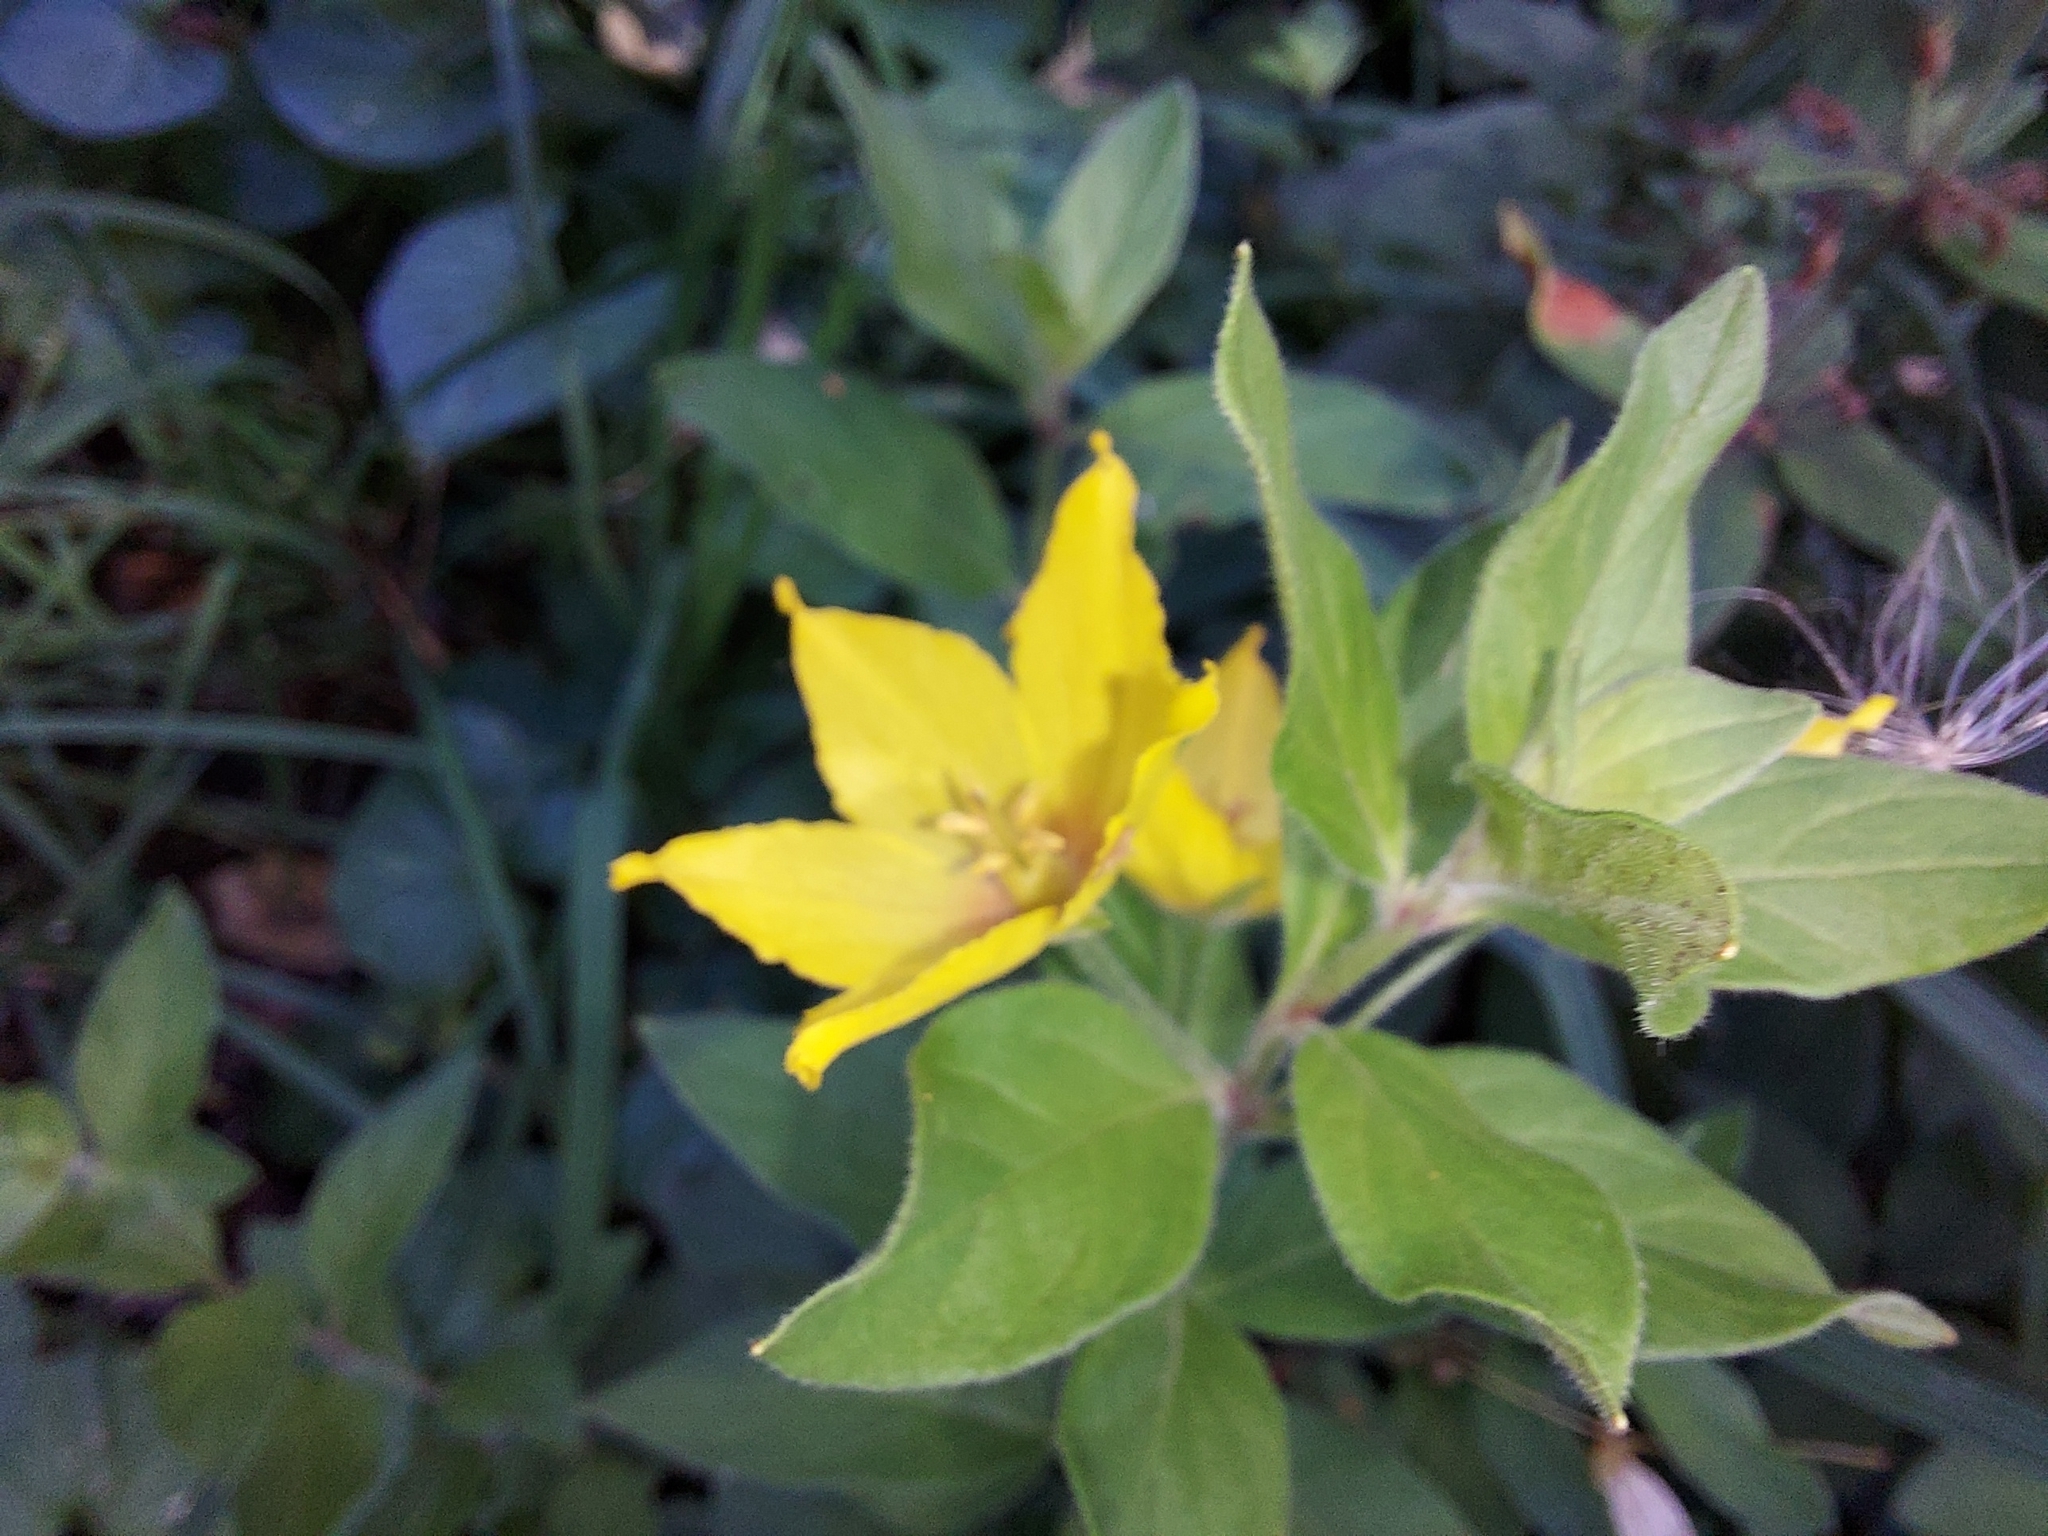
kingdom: Plantae
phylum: Tracheophyta
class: Magnoliopsida
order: Ericales
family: Primulaceae
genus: Lysimachia
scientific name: Lysimachia punctata
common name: Dotted loosestrife
